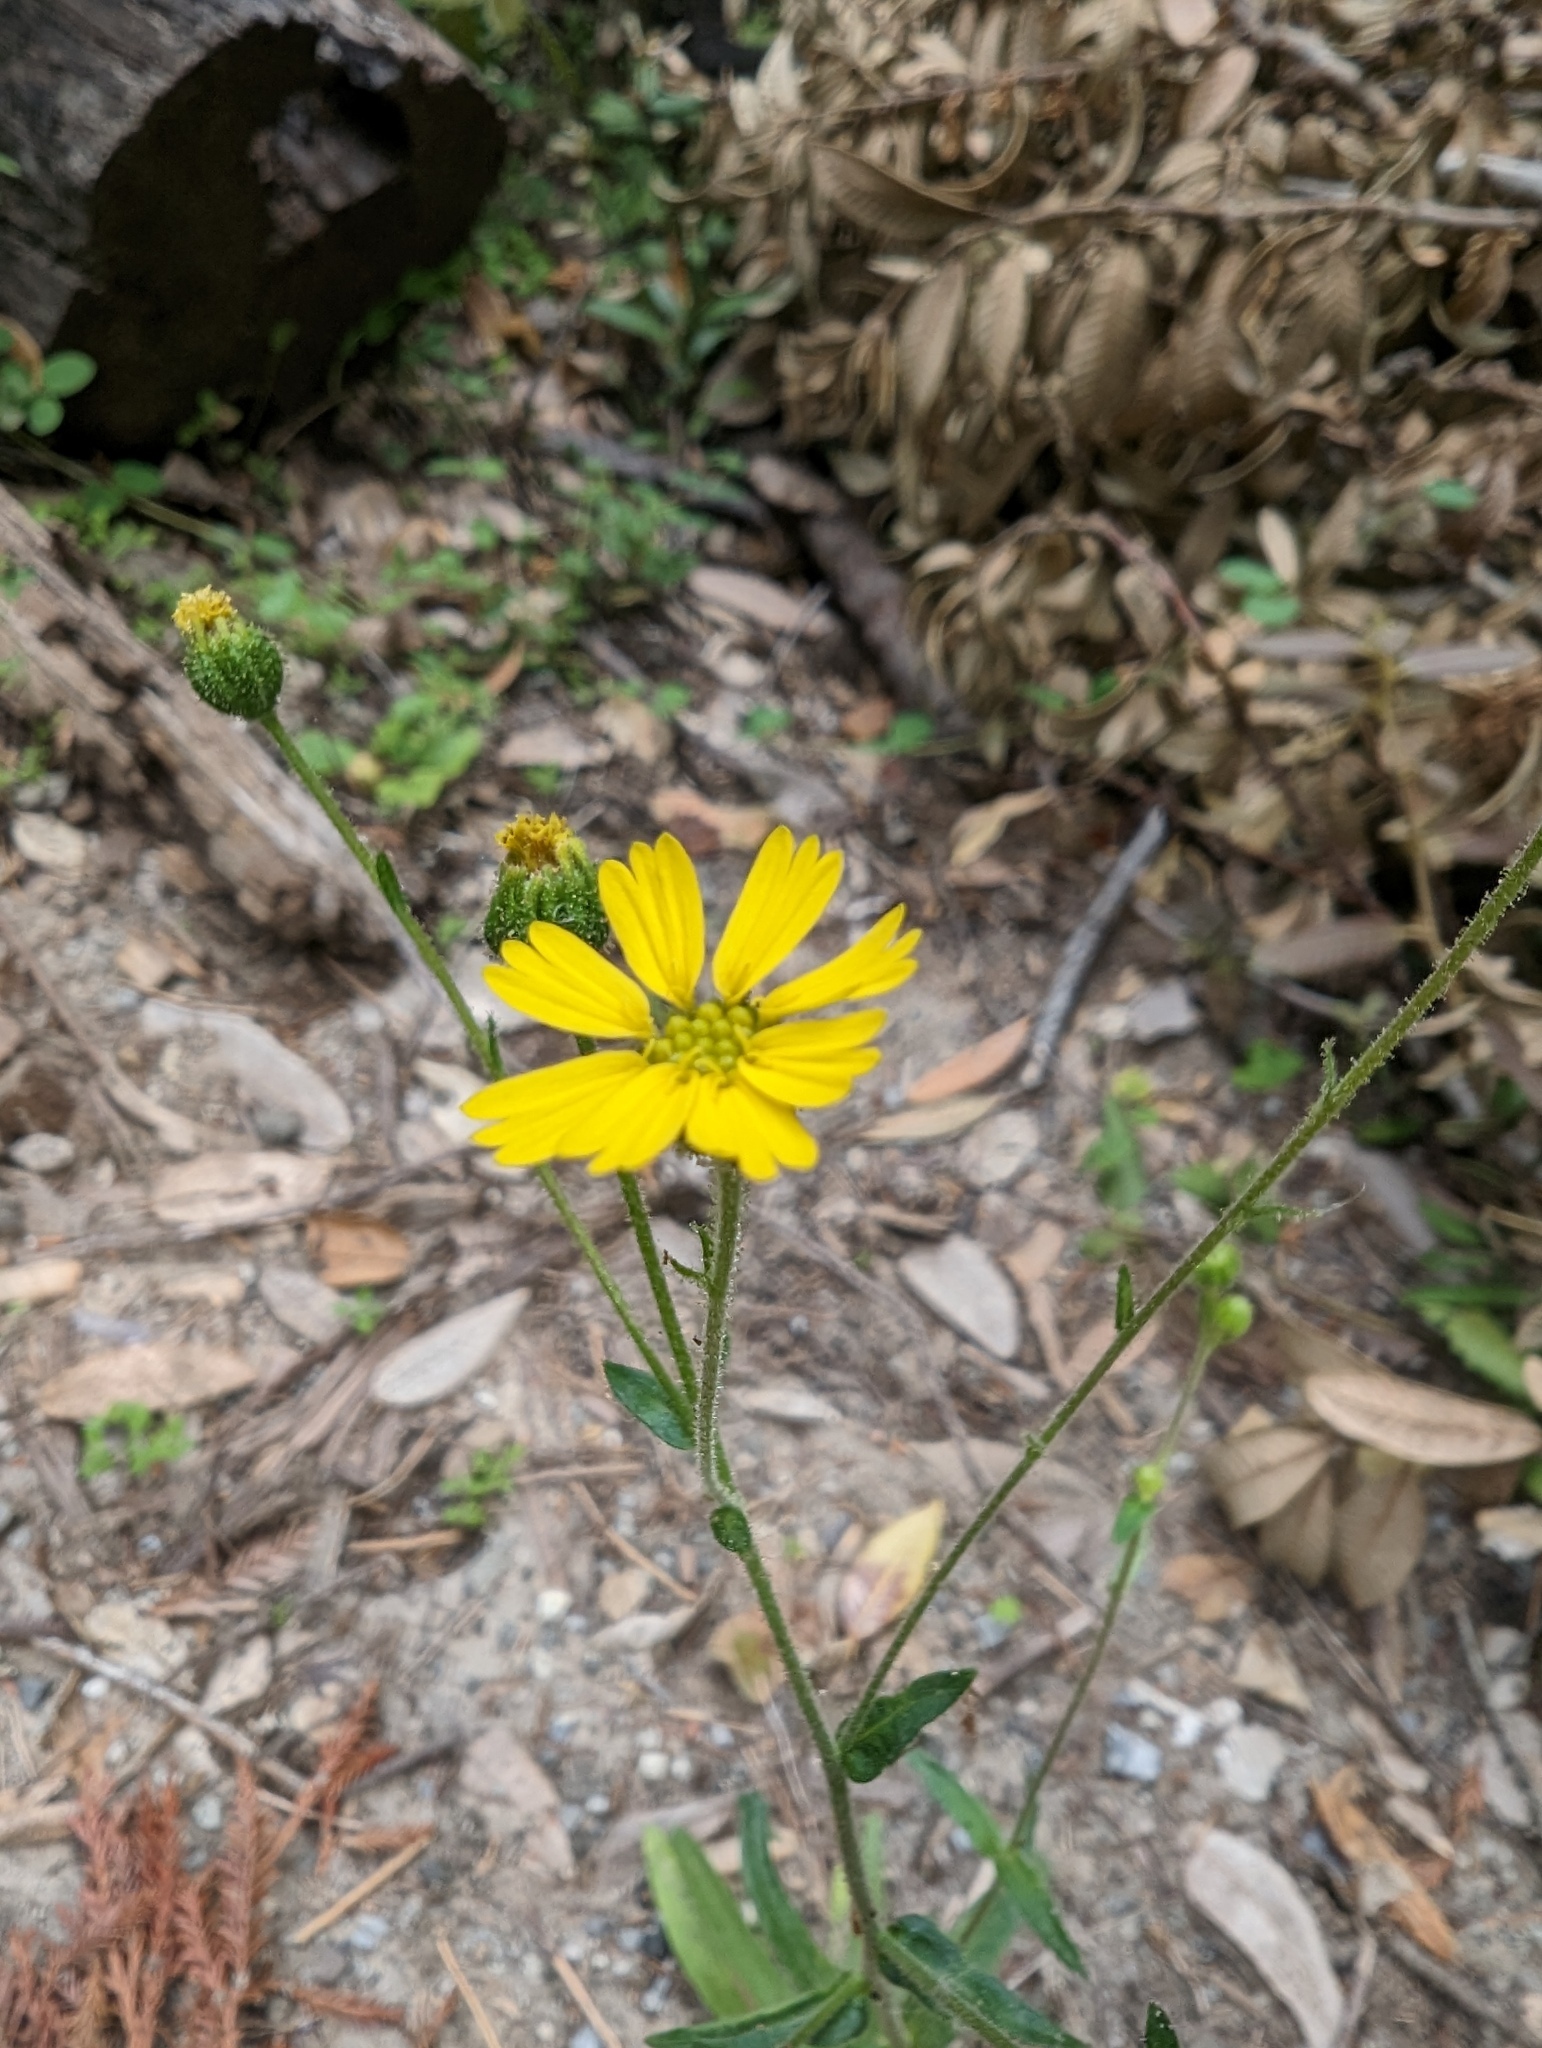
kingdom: Plantae
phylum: Tracheophyta
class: Magnoliopsida
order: Asterales
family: Asteraceae
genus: Anisocarpus
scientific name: Anisocarpus madioides
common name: Woodland madia
